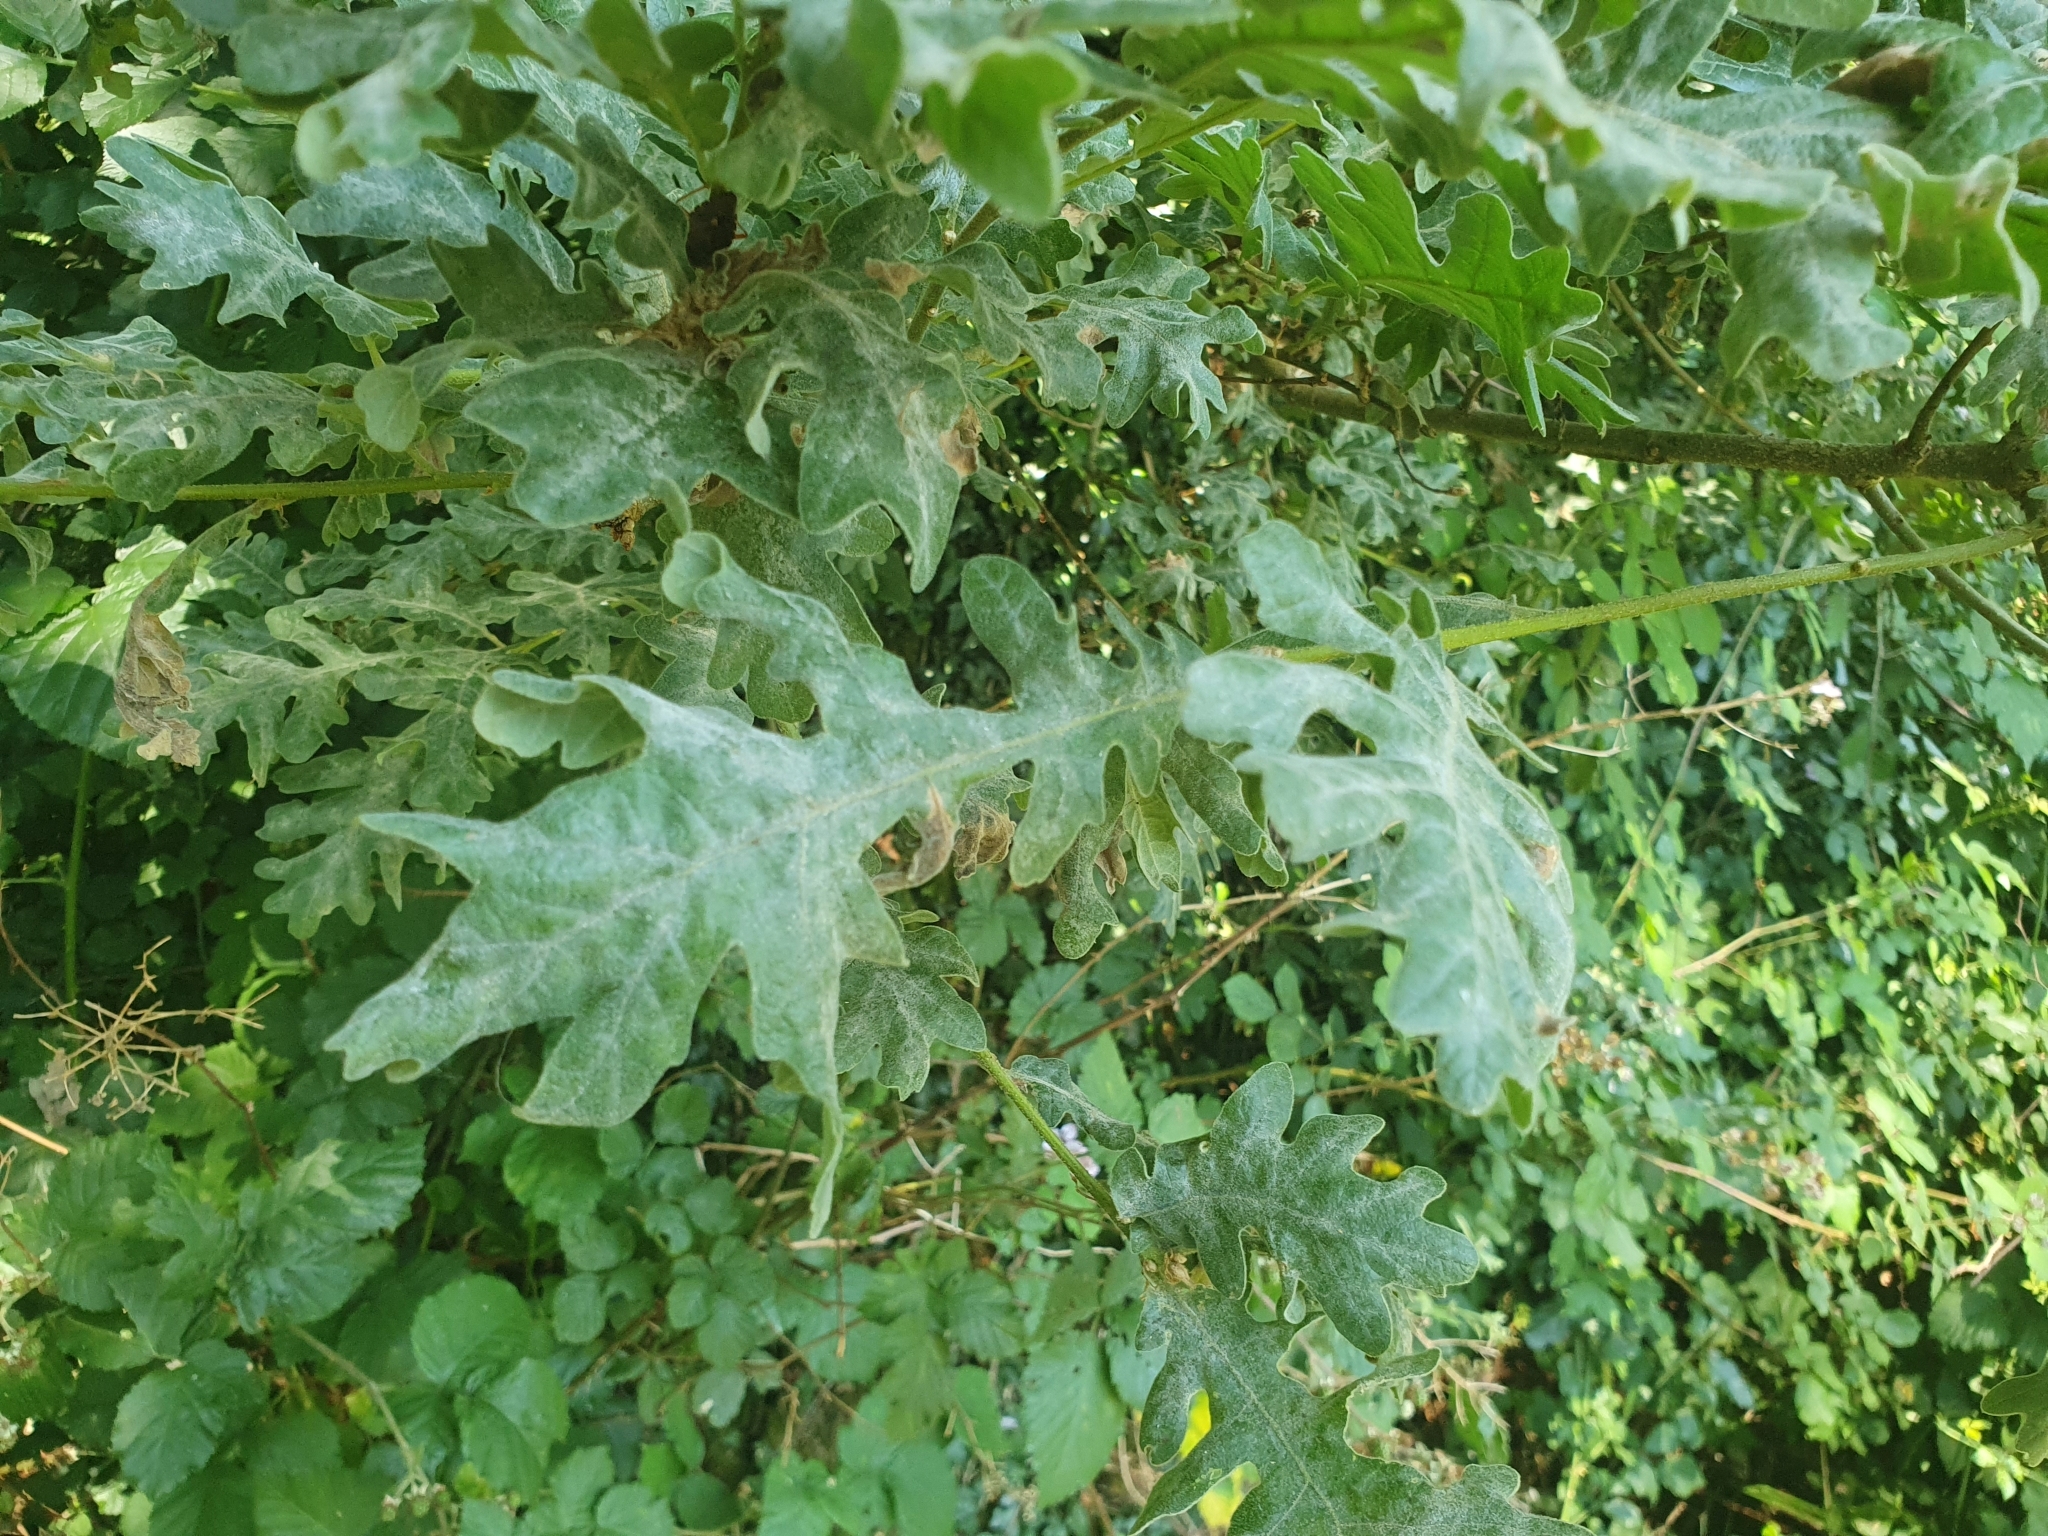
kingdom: Plantae
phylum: Tracheophyta
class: Magnoliopsida
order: Fagales
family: Fagaceae
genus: Quercus
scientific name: Quercus pyrenaica
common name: Pyrenean oak
